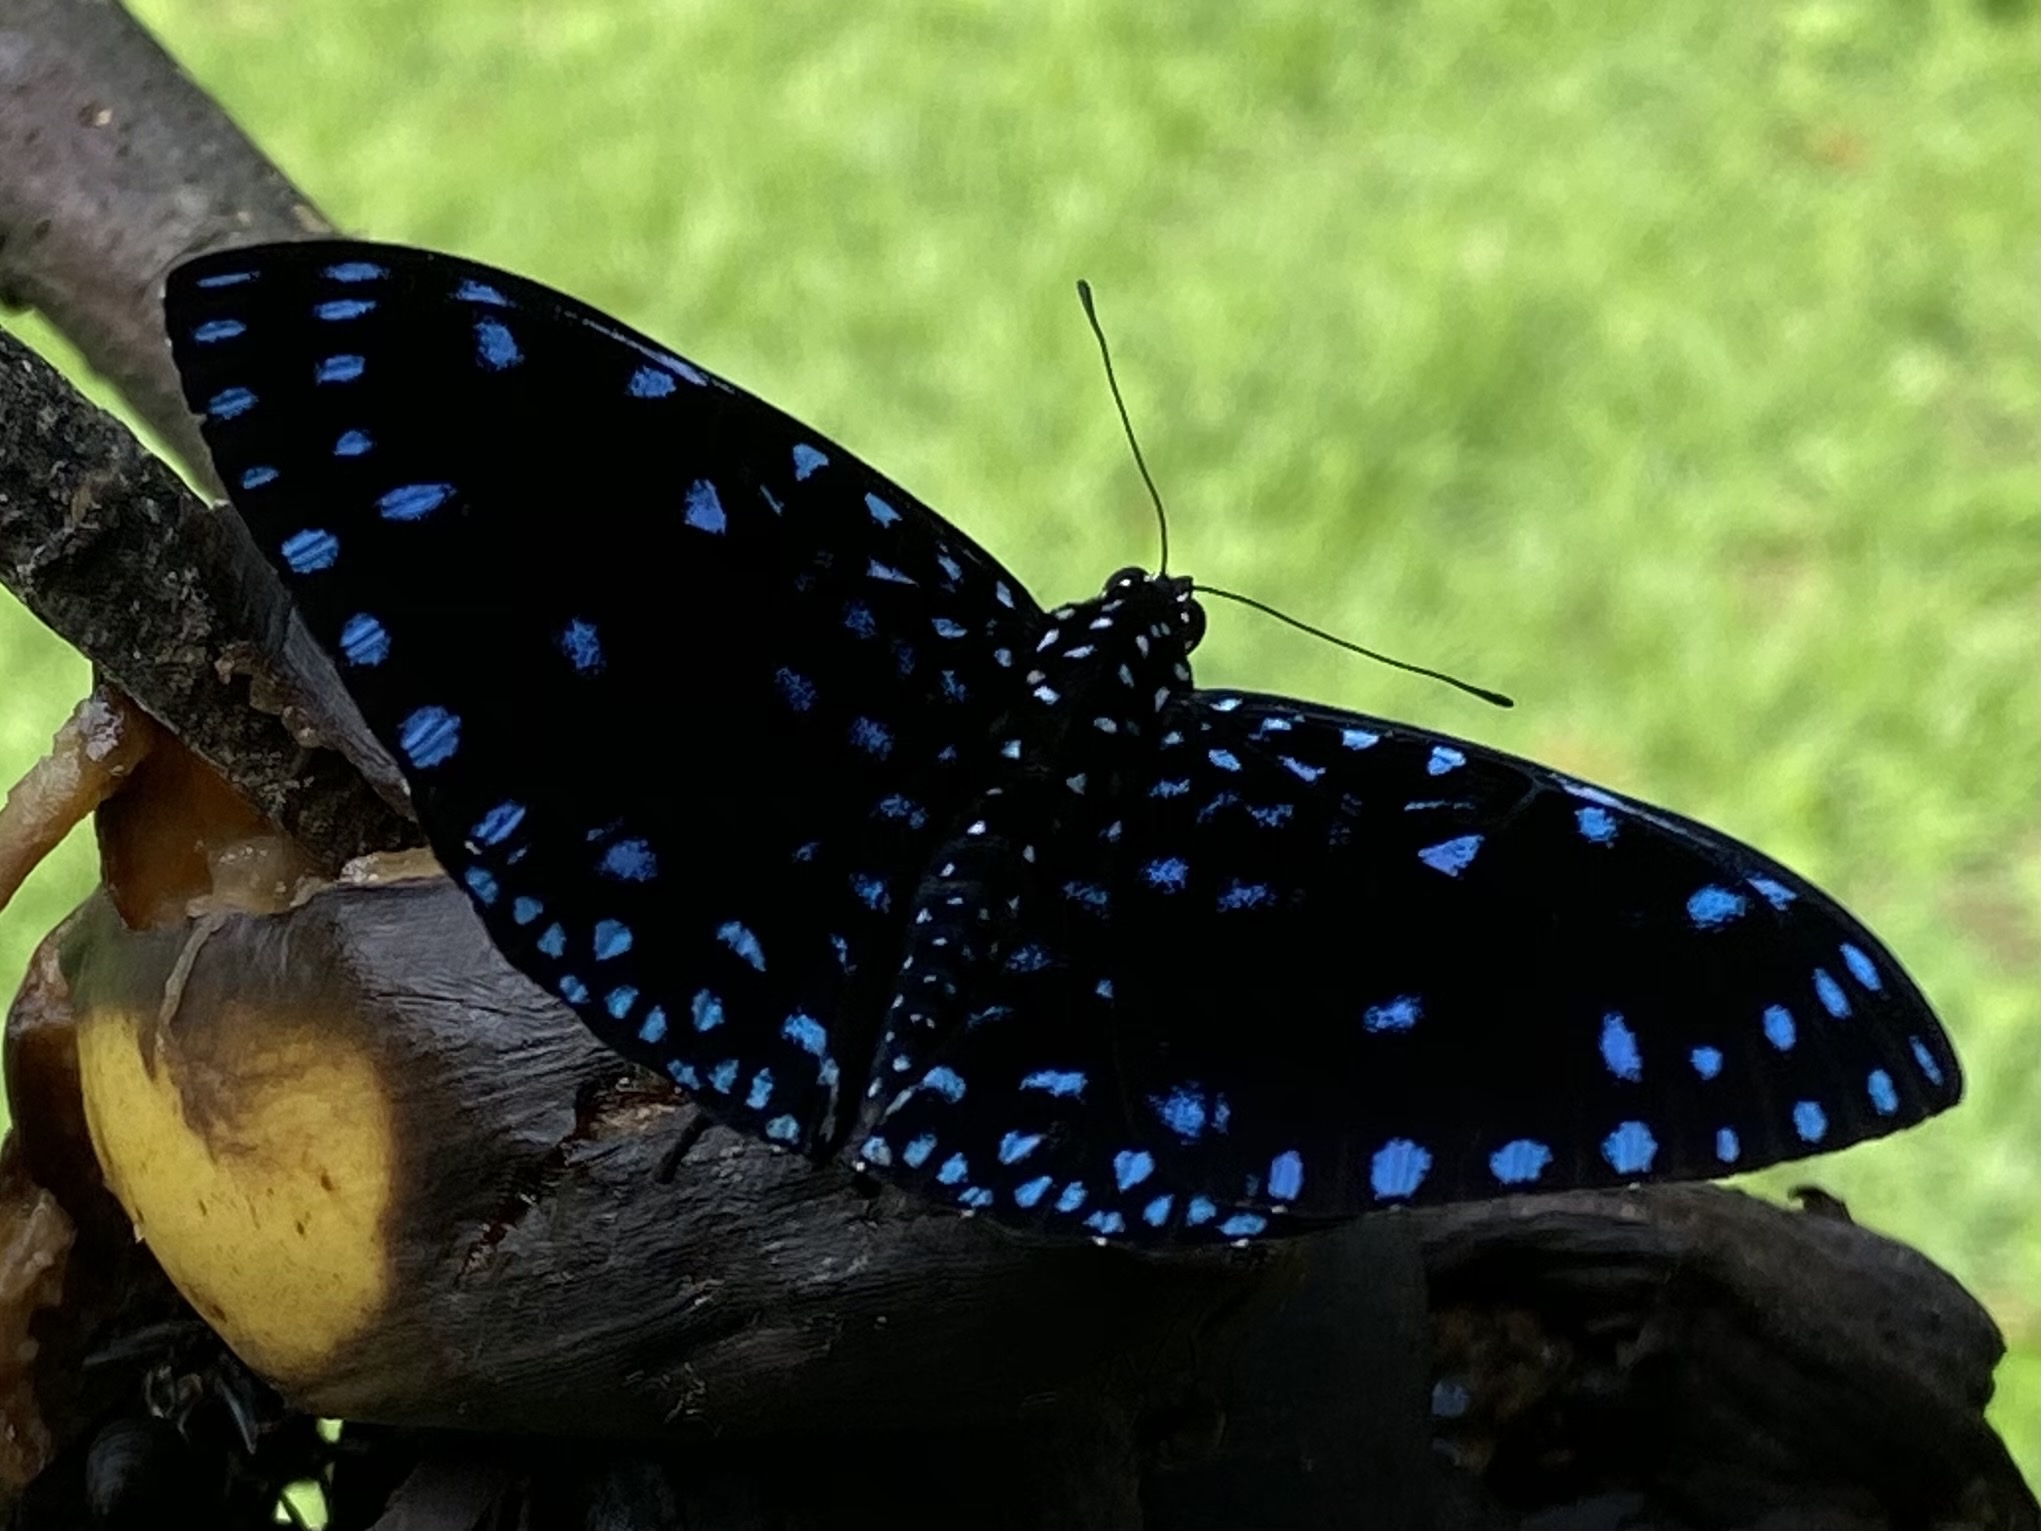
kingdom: Animalia
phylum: Arthropoda
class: Insecta
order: Lepidoptera
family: Nymphalidae
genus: Hamadryas
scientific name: Hamadryas laodamia
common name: Starry night cracker
